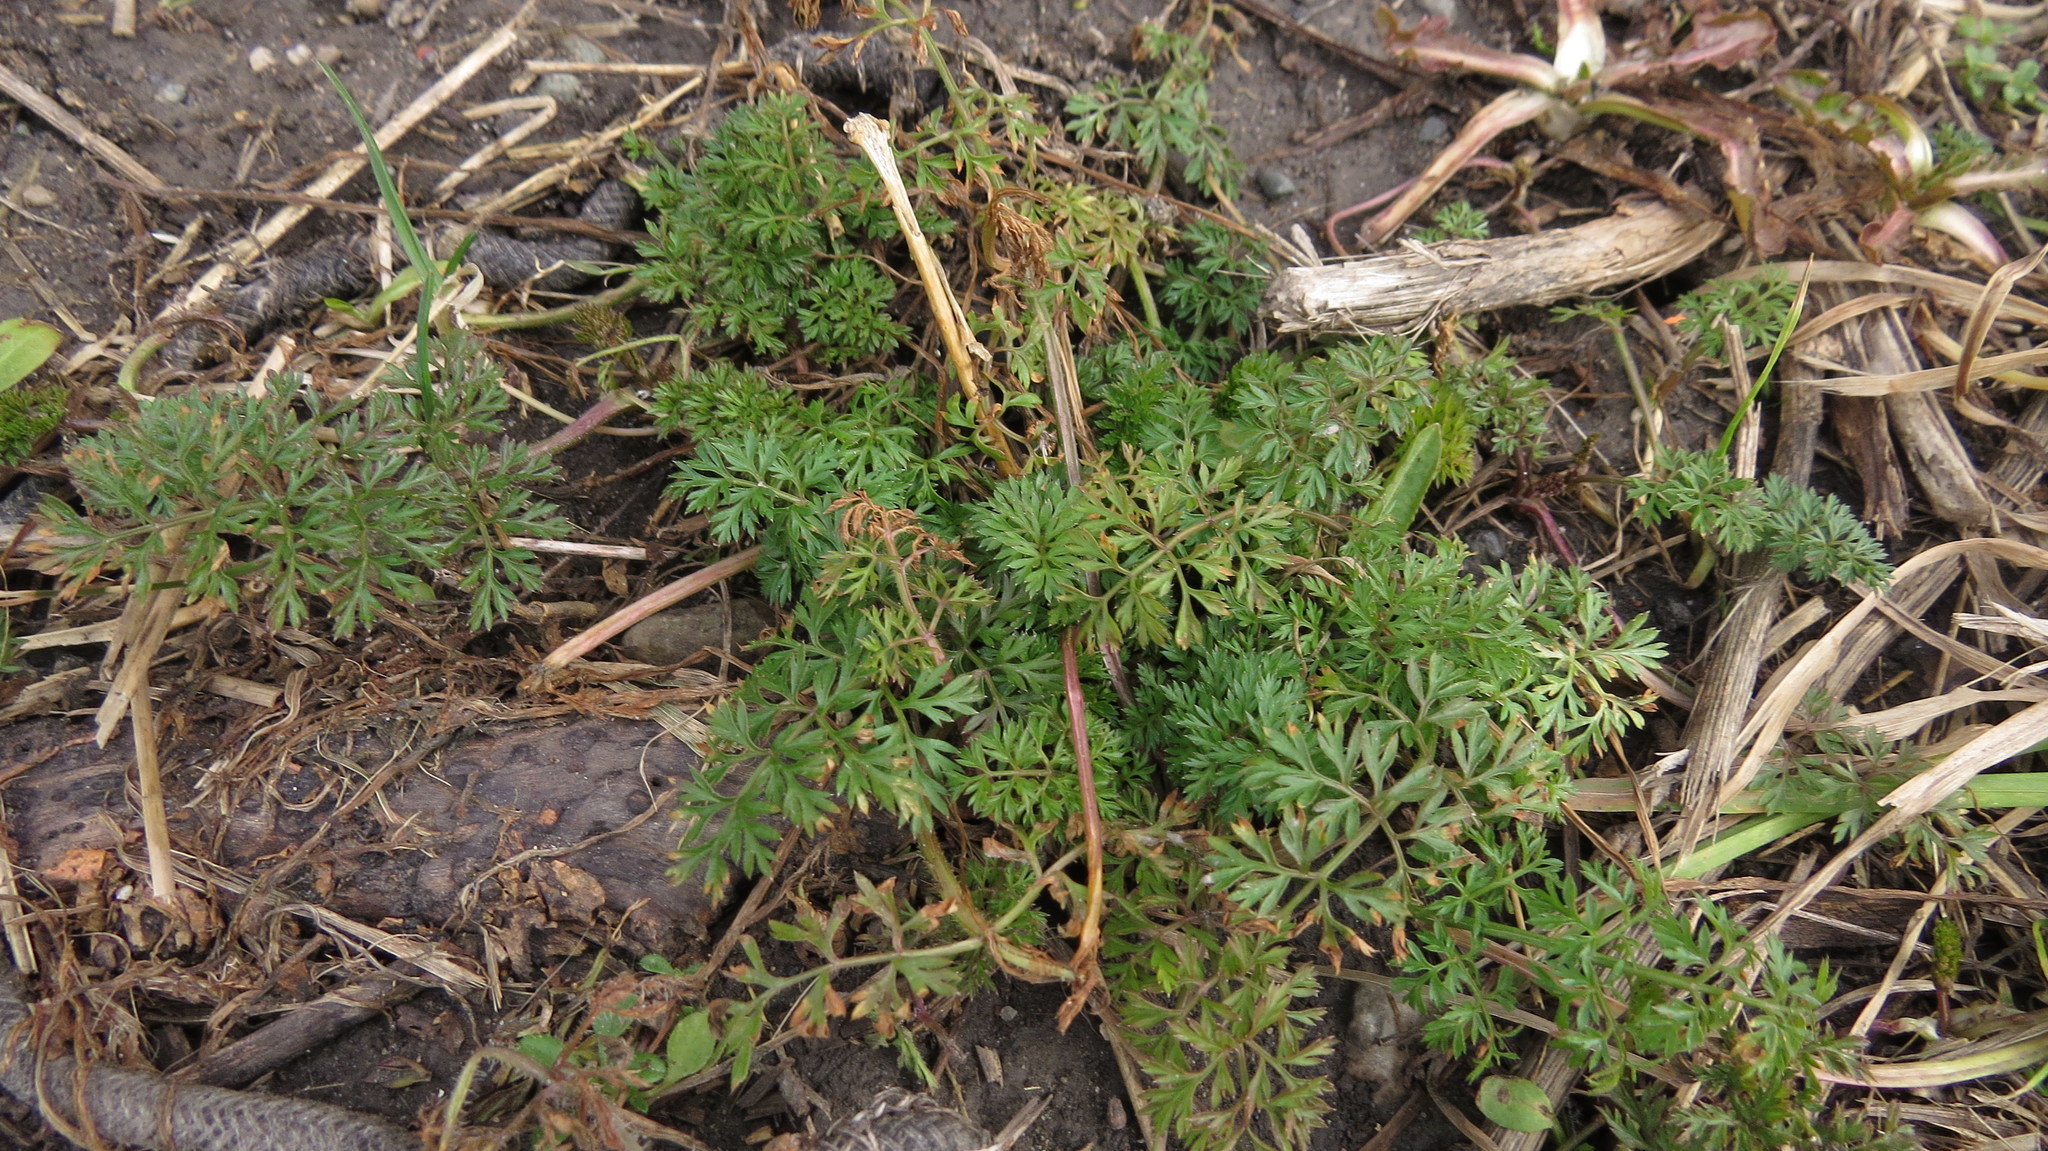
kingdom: Plantae
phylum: Tracheophyta
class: Magnoliopsida
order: Apiales
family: Apiaceae
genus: Daucus
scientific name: Daucus carota
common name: Wild carrot
